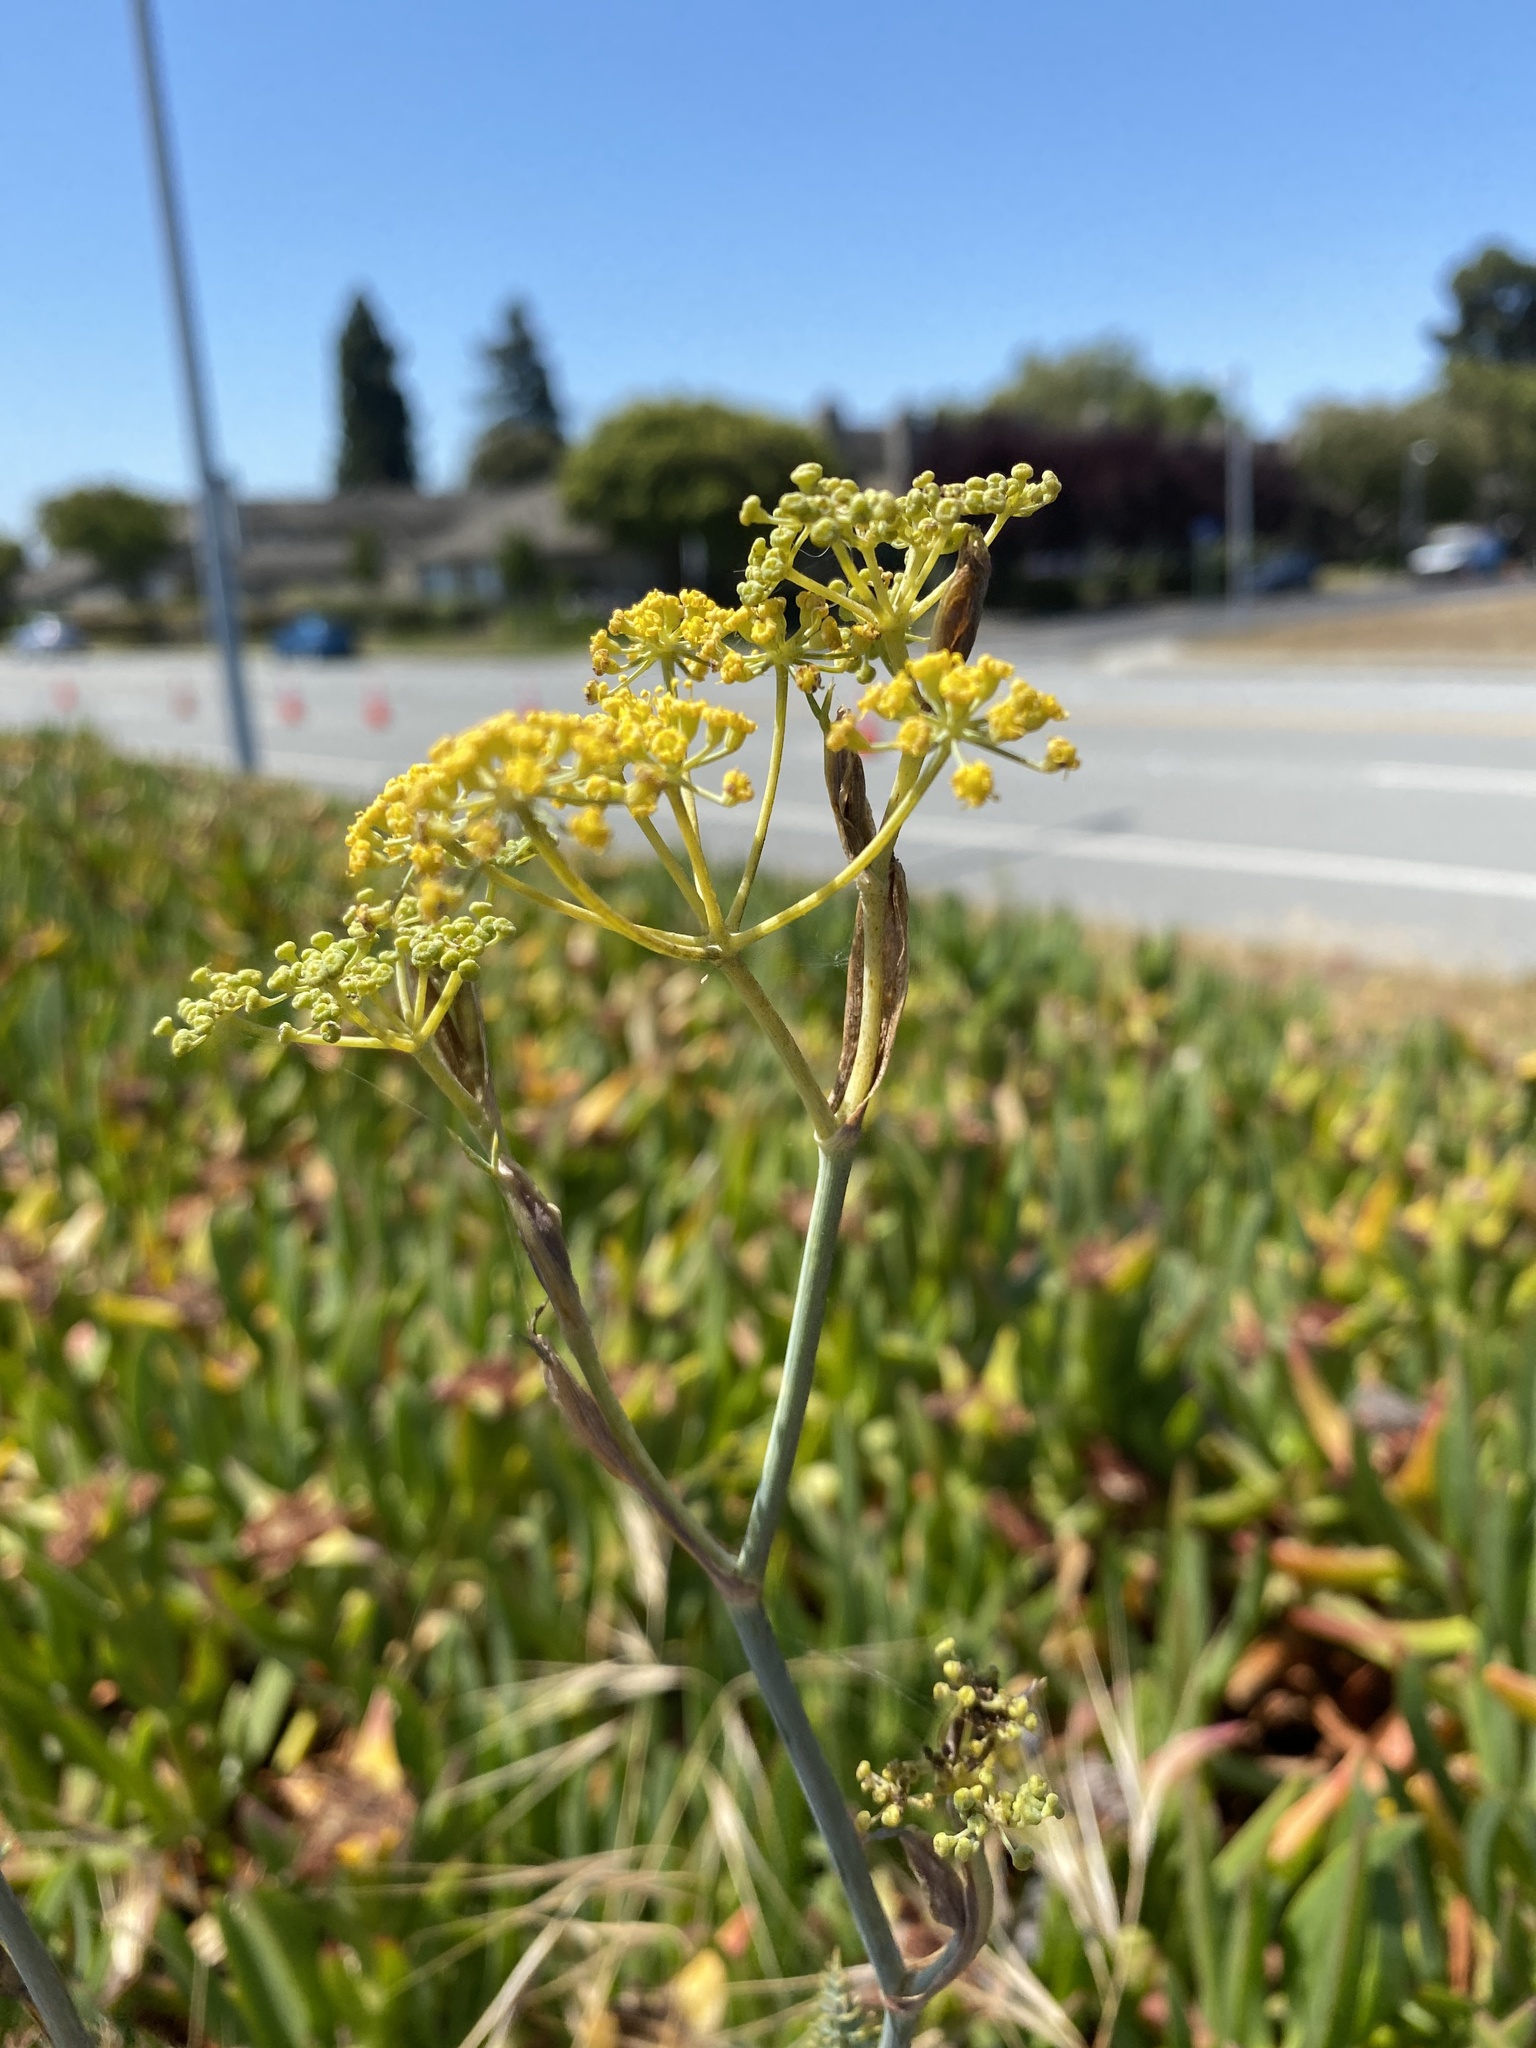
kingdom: Plantae
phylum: Tracheophyta
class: Magnoliopsida
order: Apiales
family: Apiaceae
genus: Foeniculum
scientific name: Foeniculum vulgare
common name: Fennel
